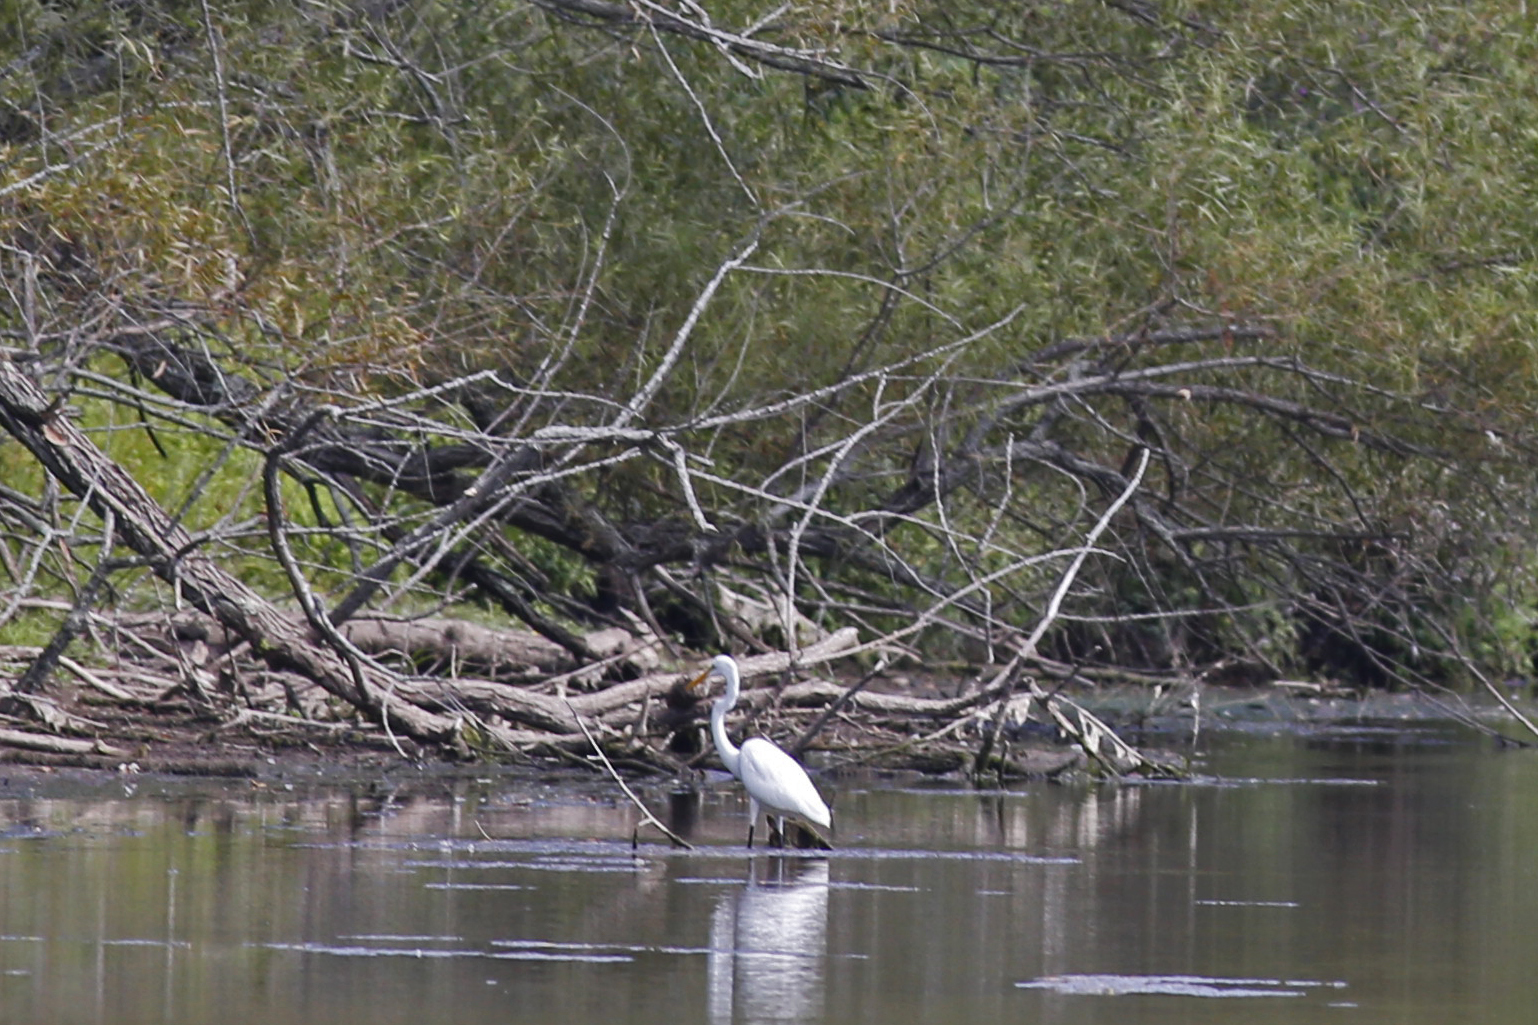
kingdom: Animalia
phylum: Chordata
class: Aves
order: Pelecaniformes
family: Ardeidae
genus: Ardea
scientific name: Ardea alba
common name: Great egret
